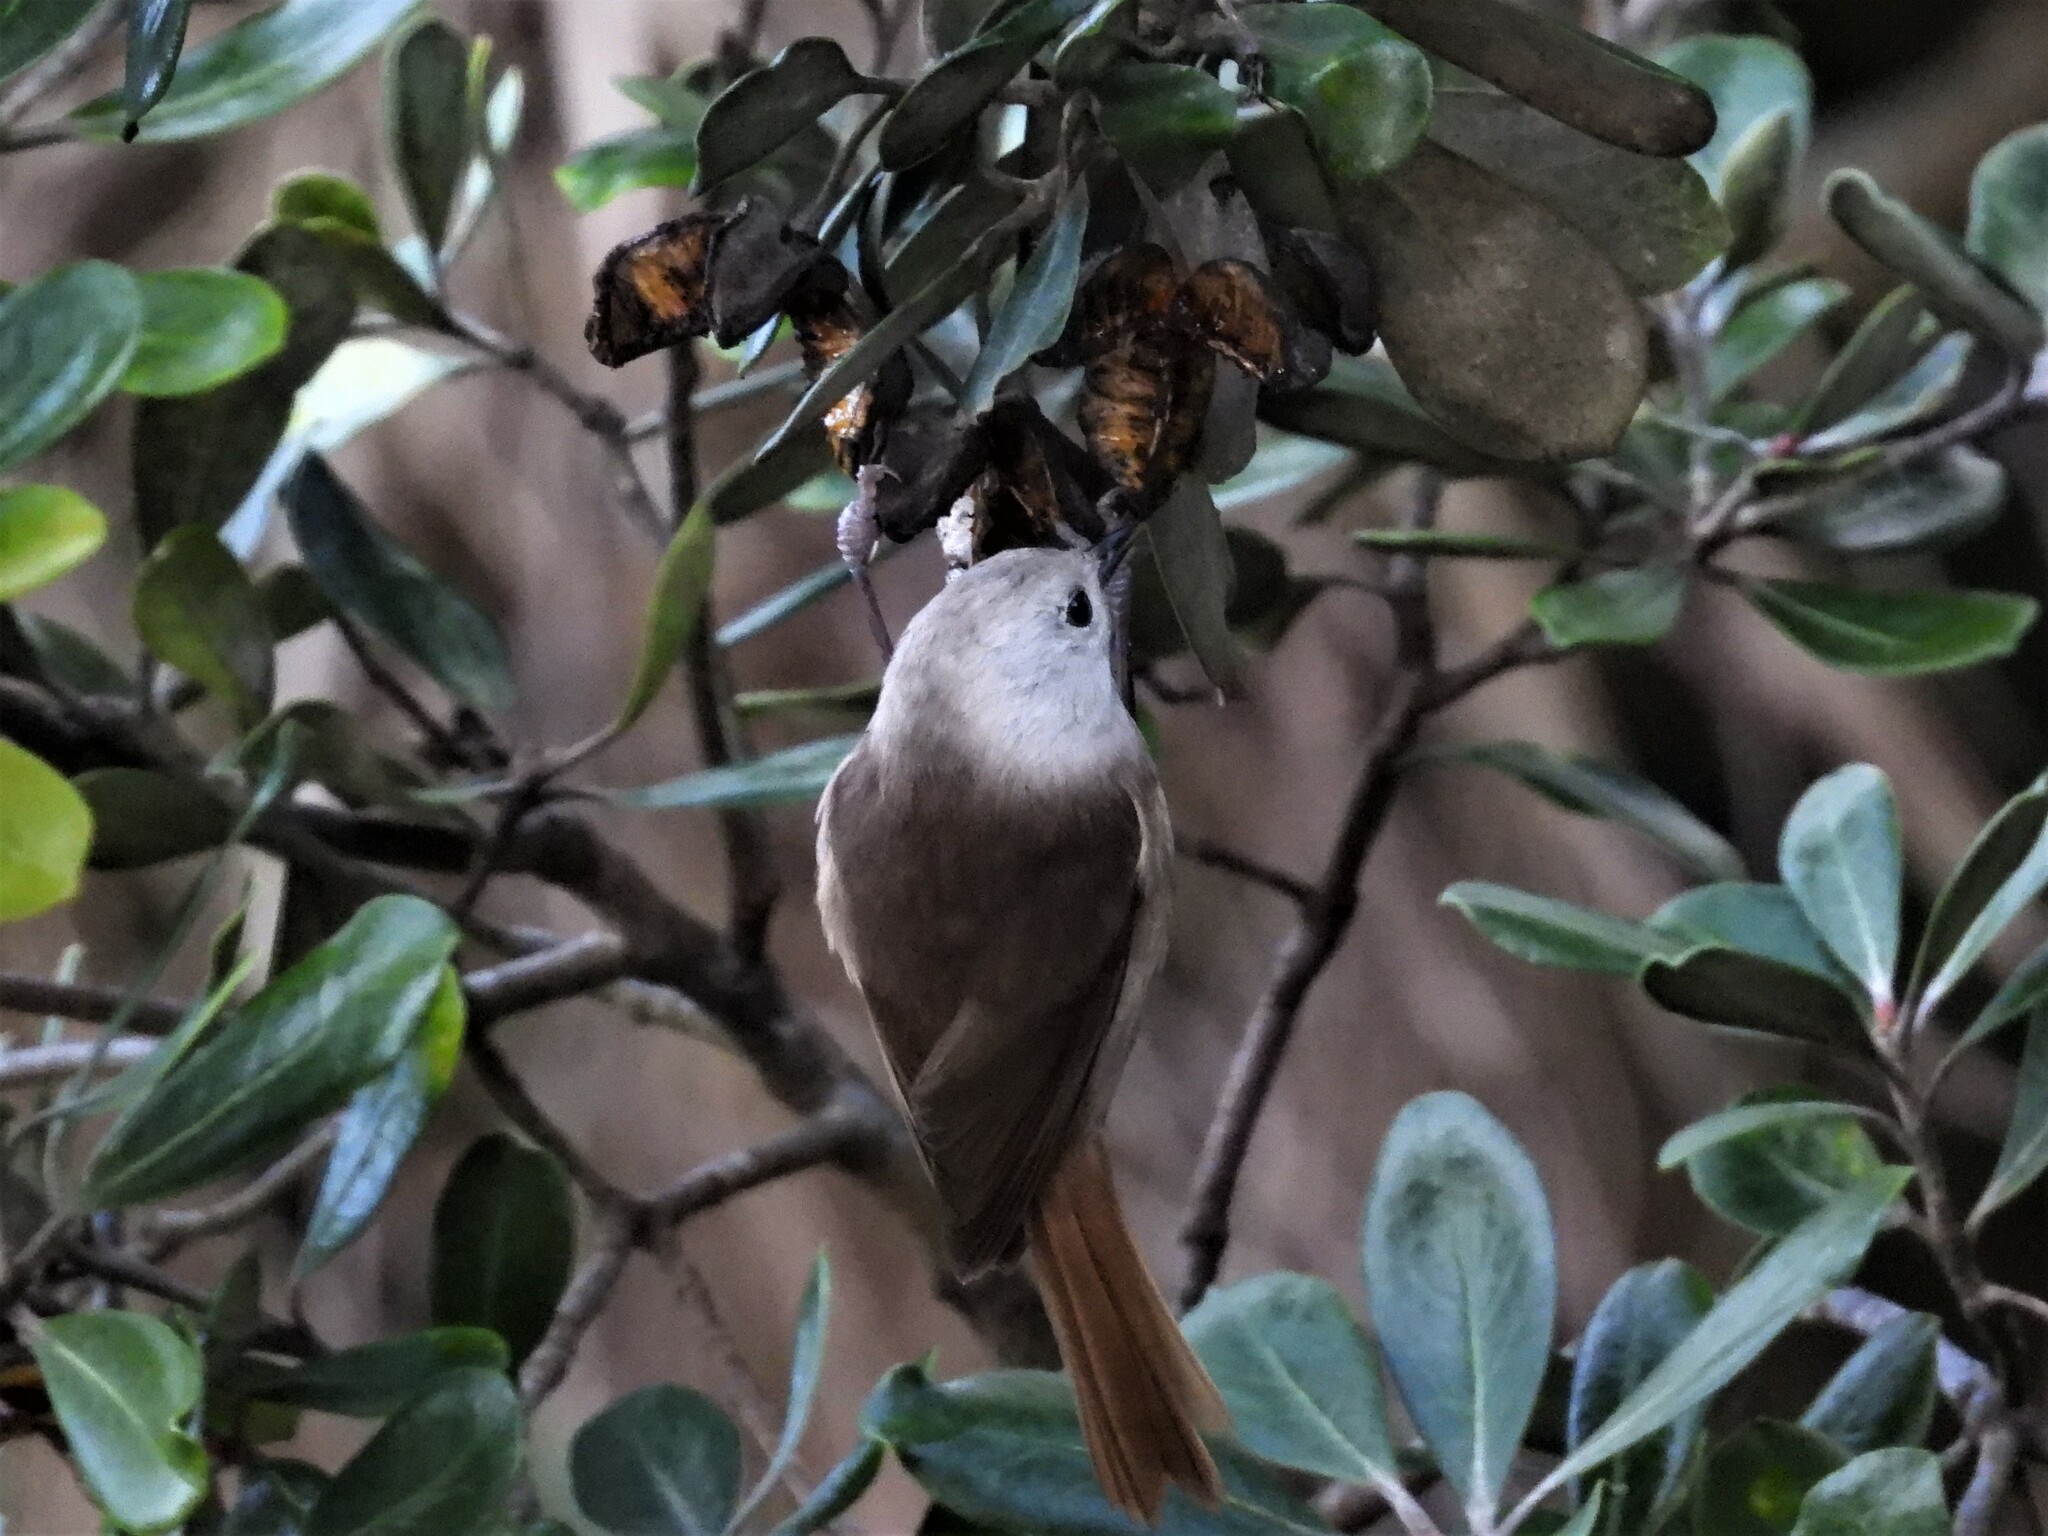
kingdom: Animalia
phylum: Chordata
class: Aves
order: Passeriformes
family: Acanthizidae
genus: Mohoua
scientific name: Mohoua albicilla
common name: Whitehead
